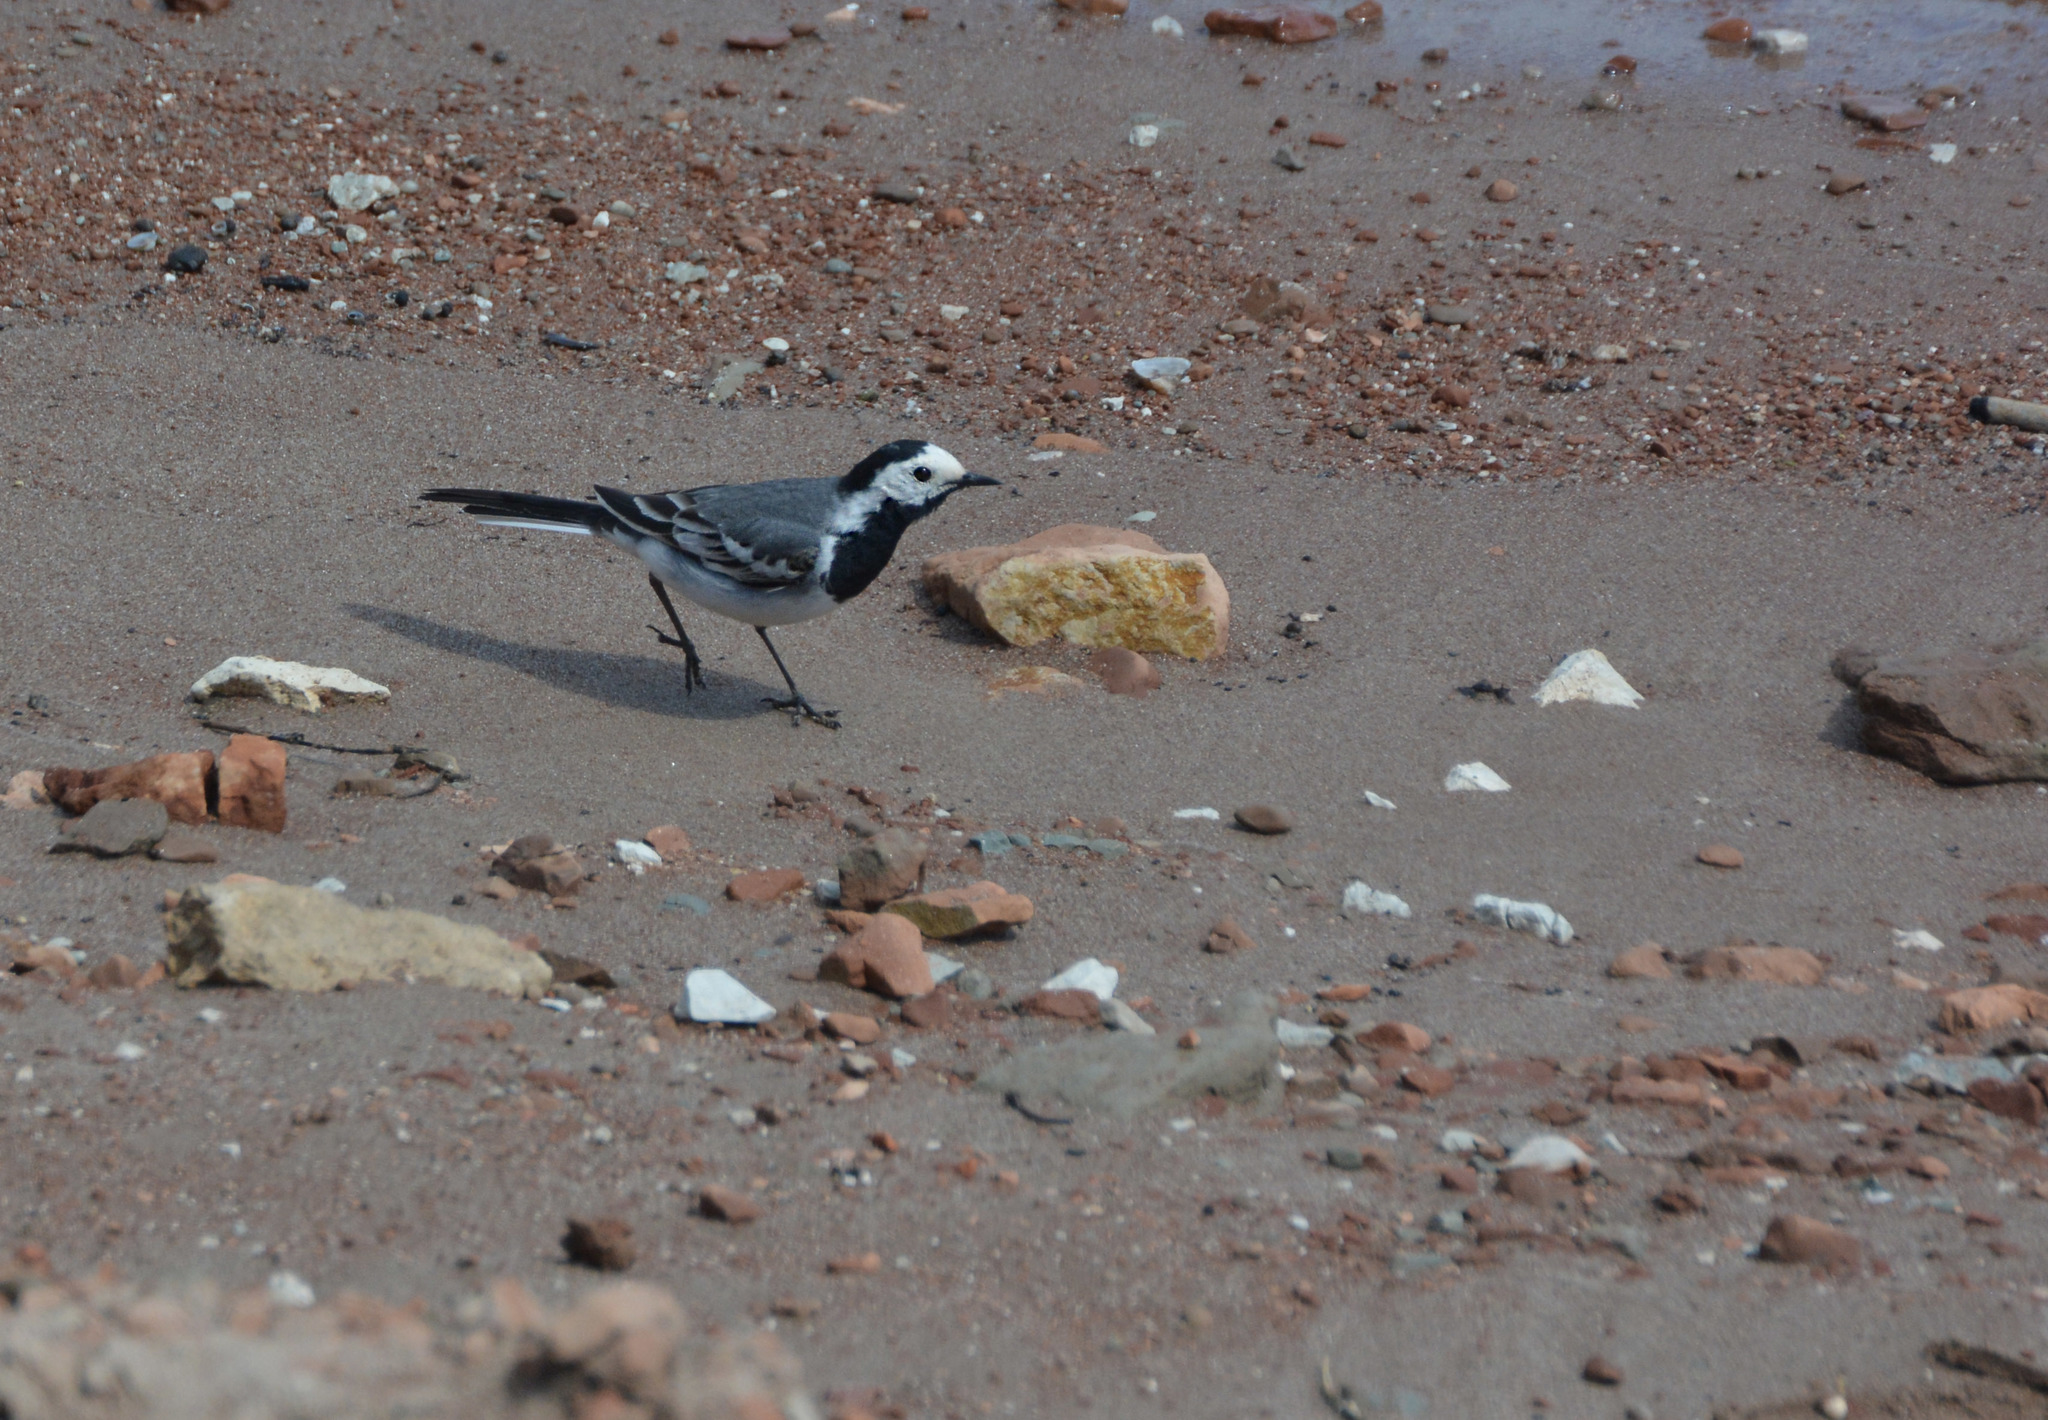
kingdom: Animalia
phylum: Chordata
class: Aves
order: Passeriformes
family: Motacillidae
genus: Motacilla
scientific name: Motacilla alba
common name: White wagtail
